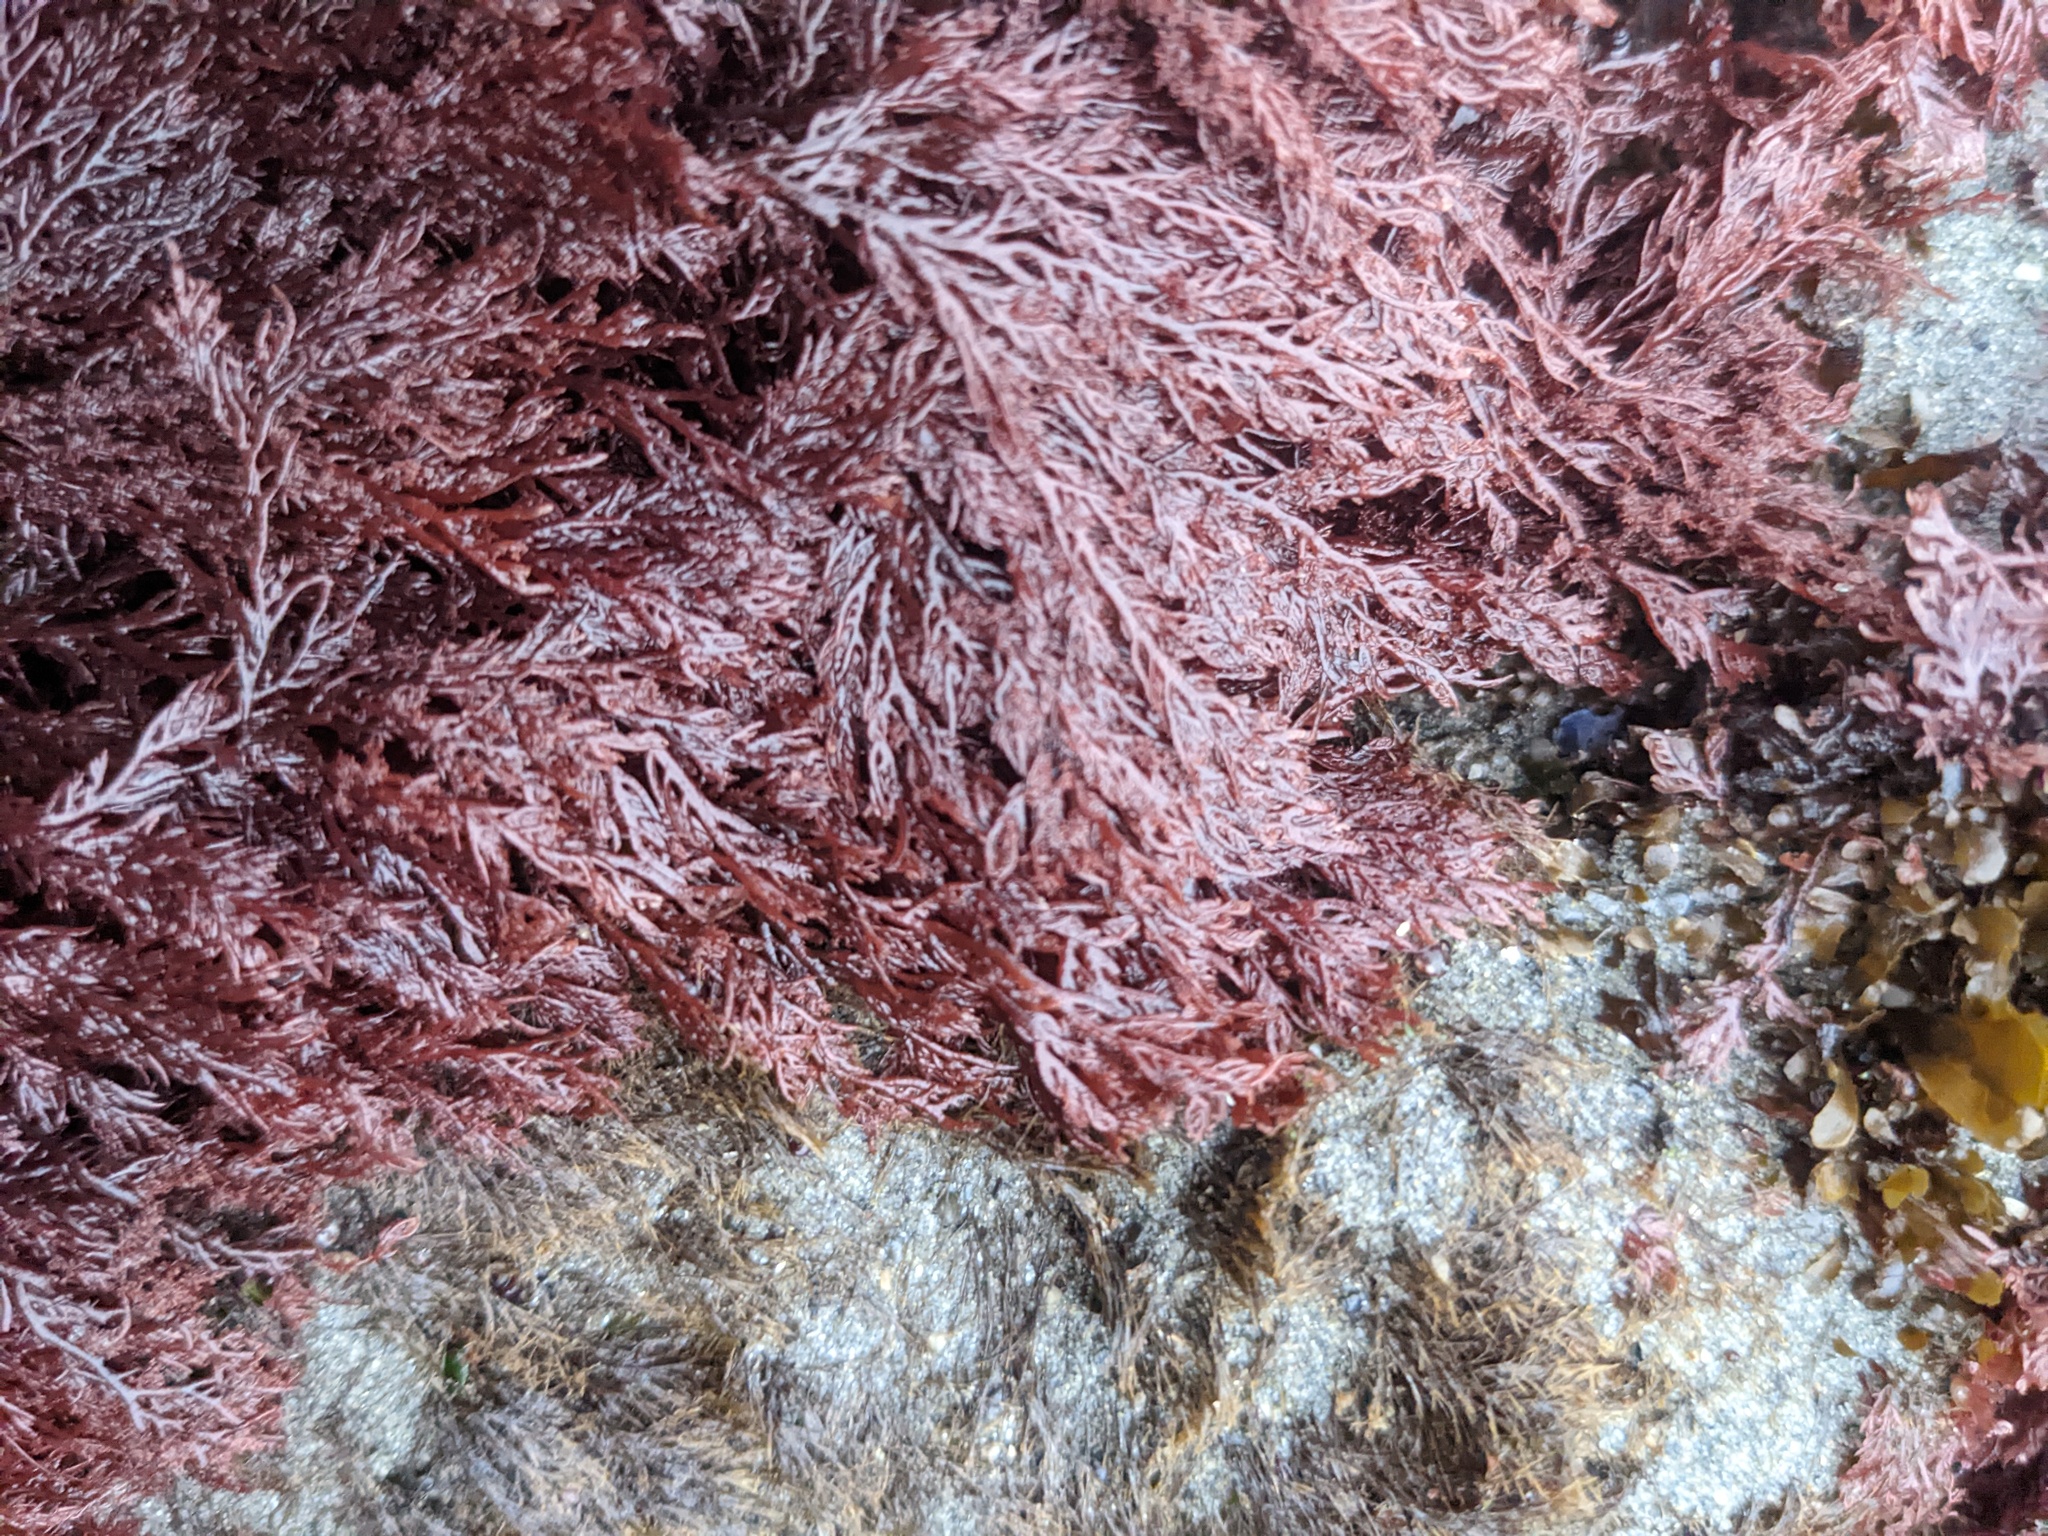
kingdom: Plantae
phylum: Rhodophyta
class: Florideophyceae
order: Plocamiales
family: Plocamiaceae
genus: Plocamium
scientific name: Plocamium cartilagineum
